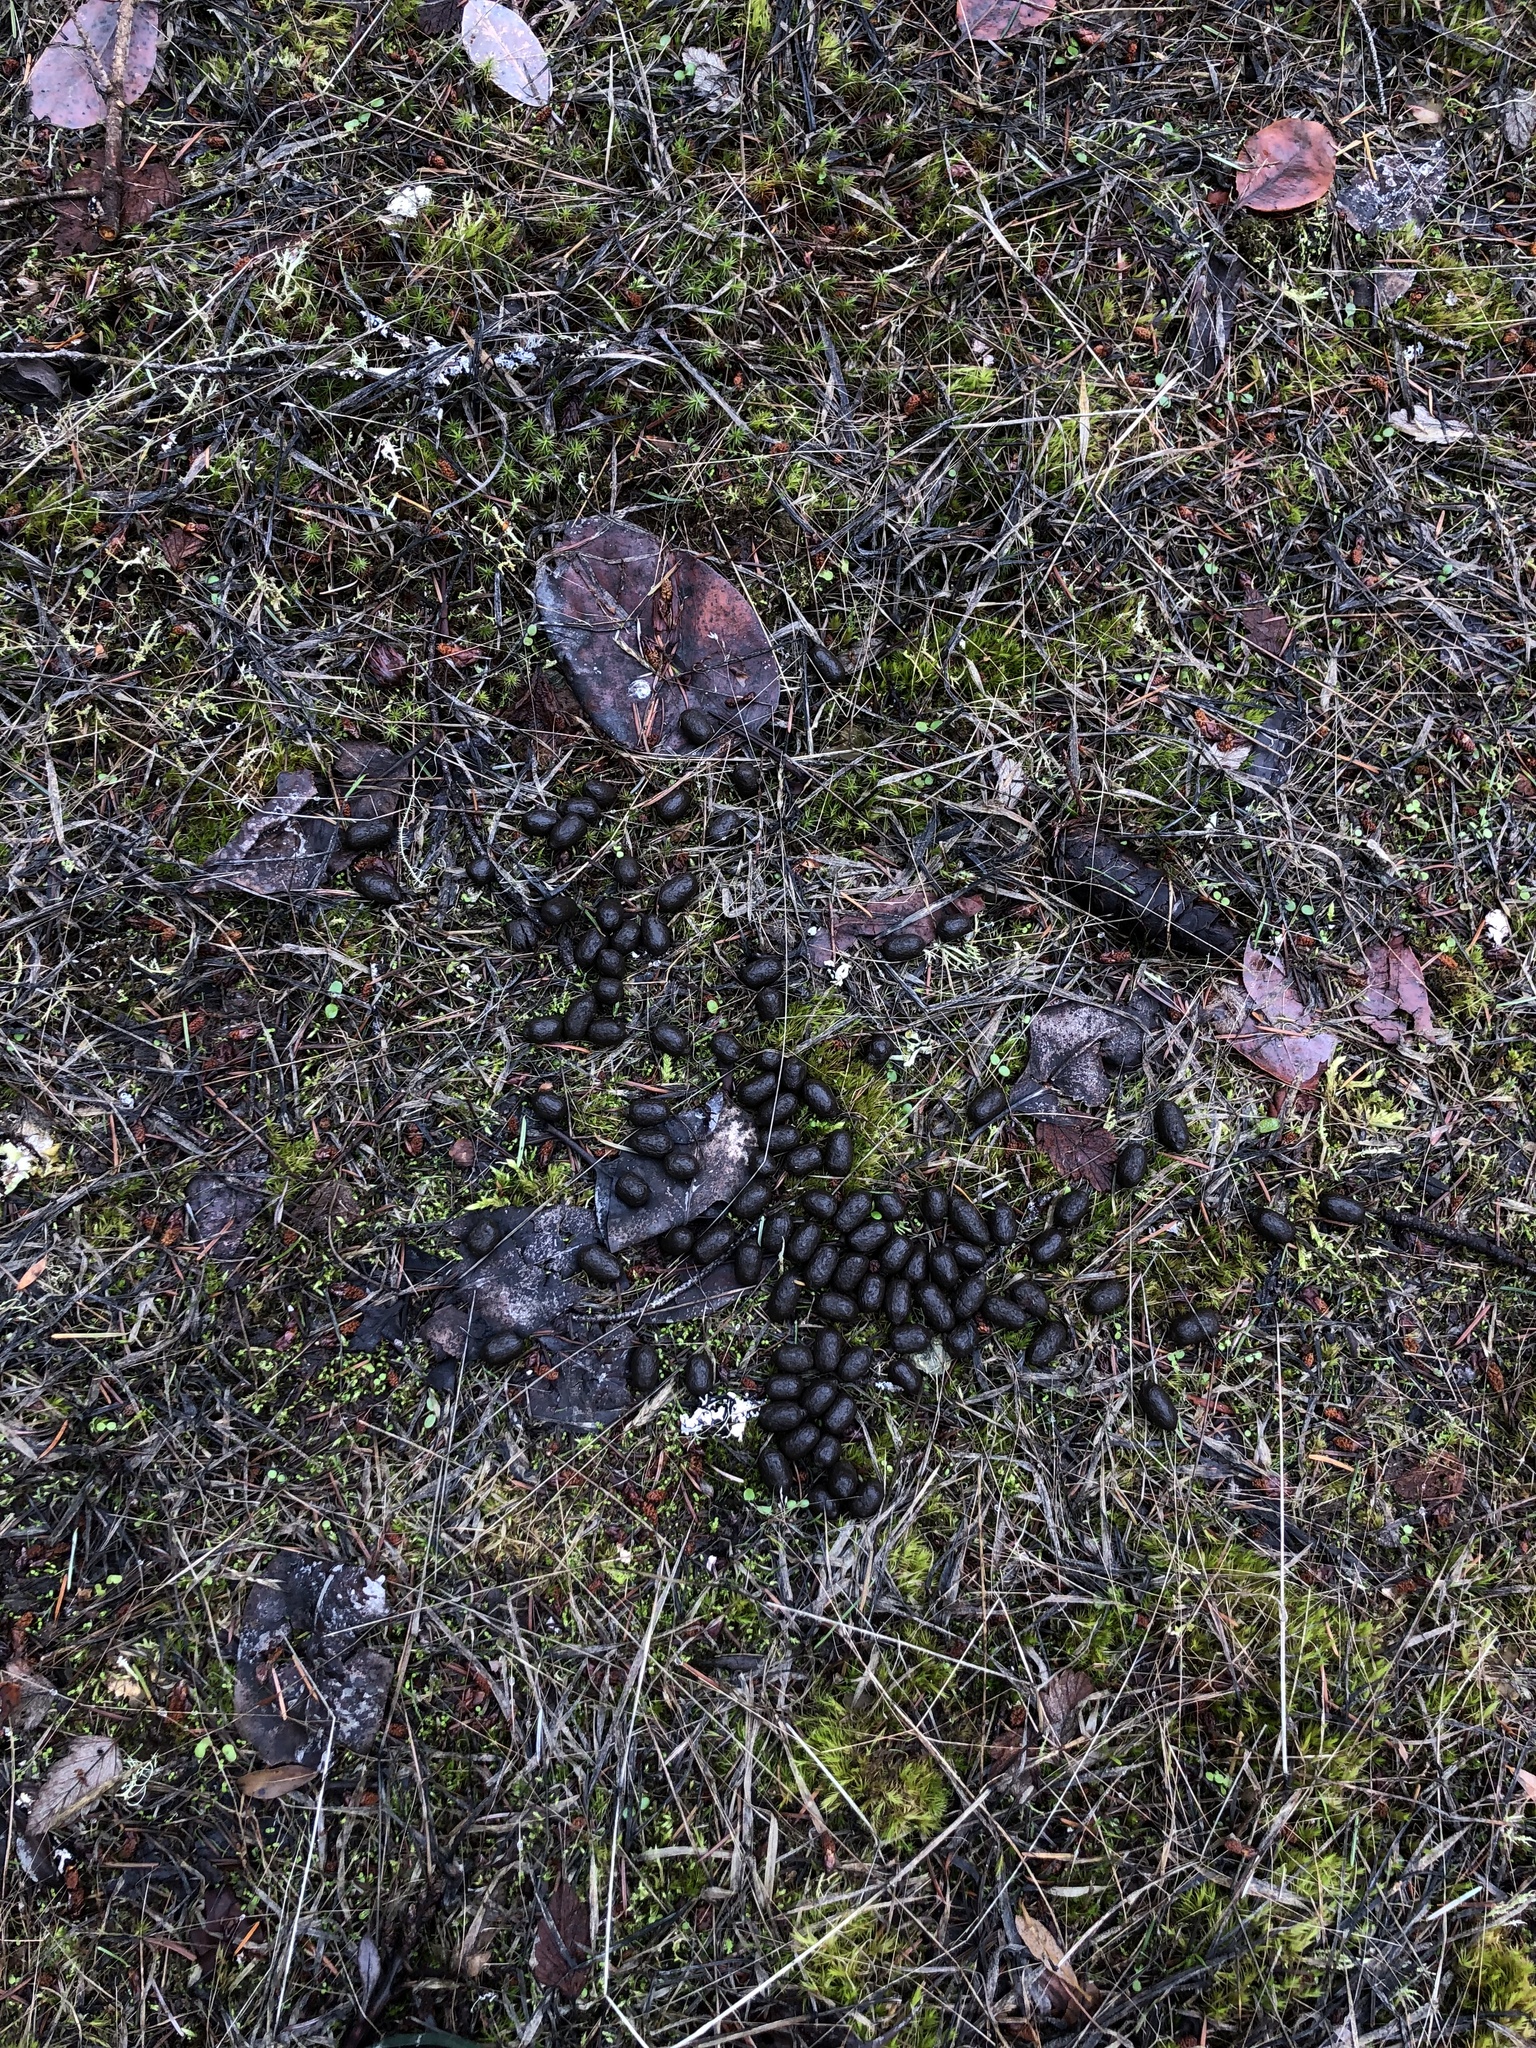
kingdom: Animalia
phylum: Chordata
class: Mammalia
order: Artiodactyla
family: Cervidae
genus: Odocoileus
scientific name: Odocoileus hemionus
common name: Mule deer
